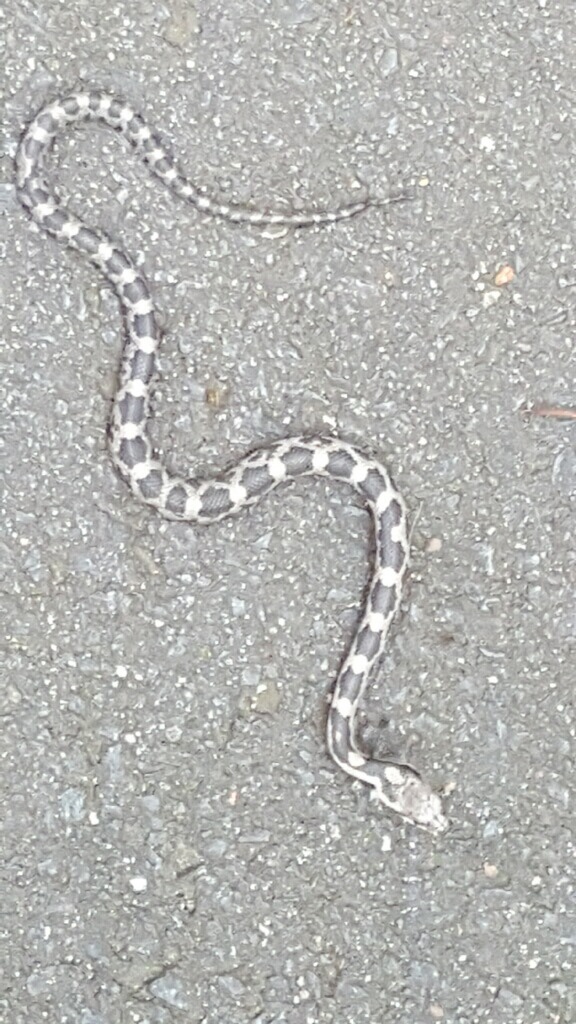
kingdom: Animalia
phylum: Chordata
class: Squamata
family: Colubridae
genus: Pantherophis
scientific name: Pantherophis alleghaniensis
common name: Eastern rat snake
